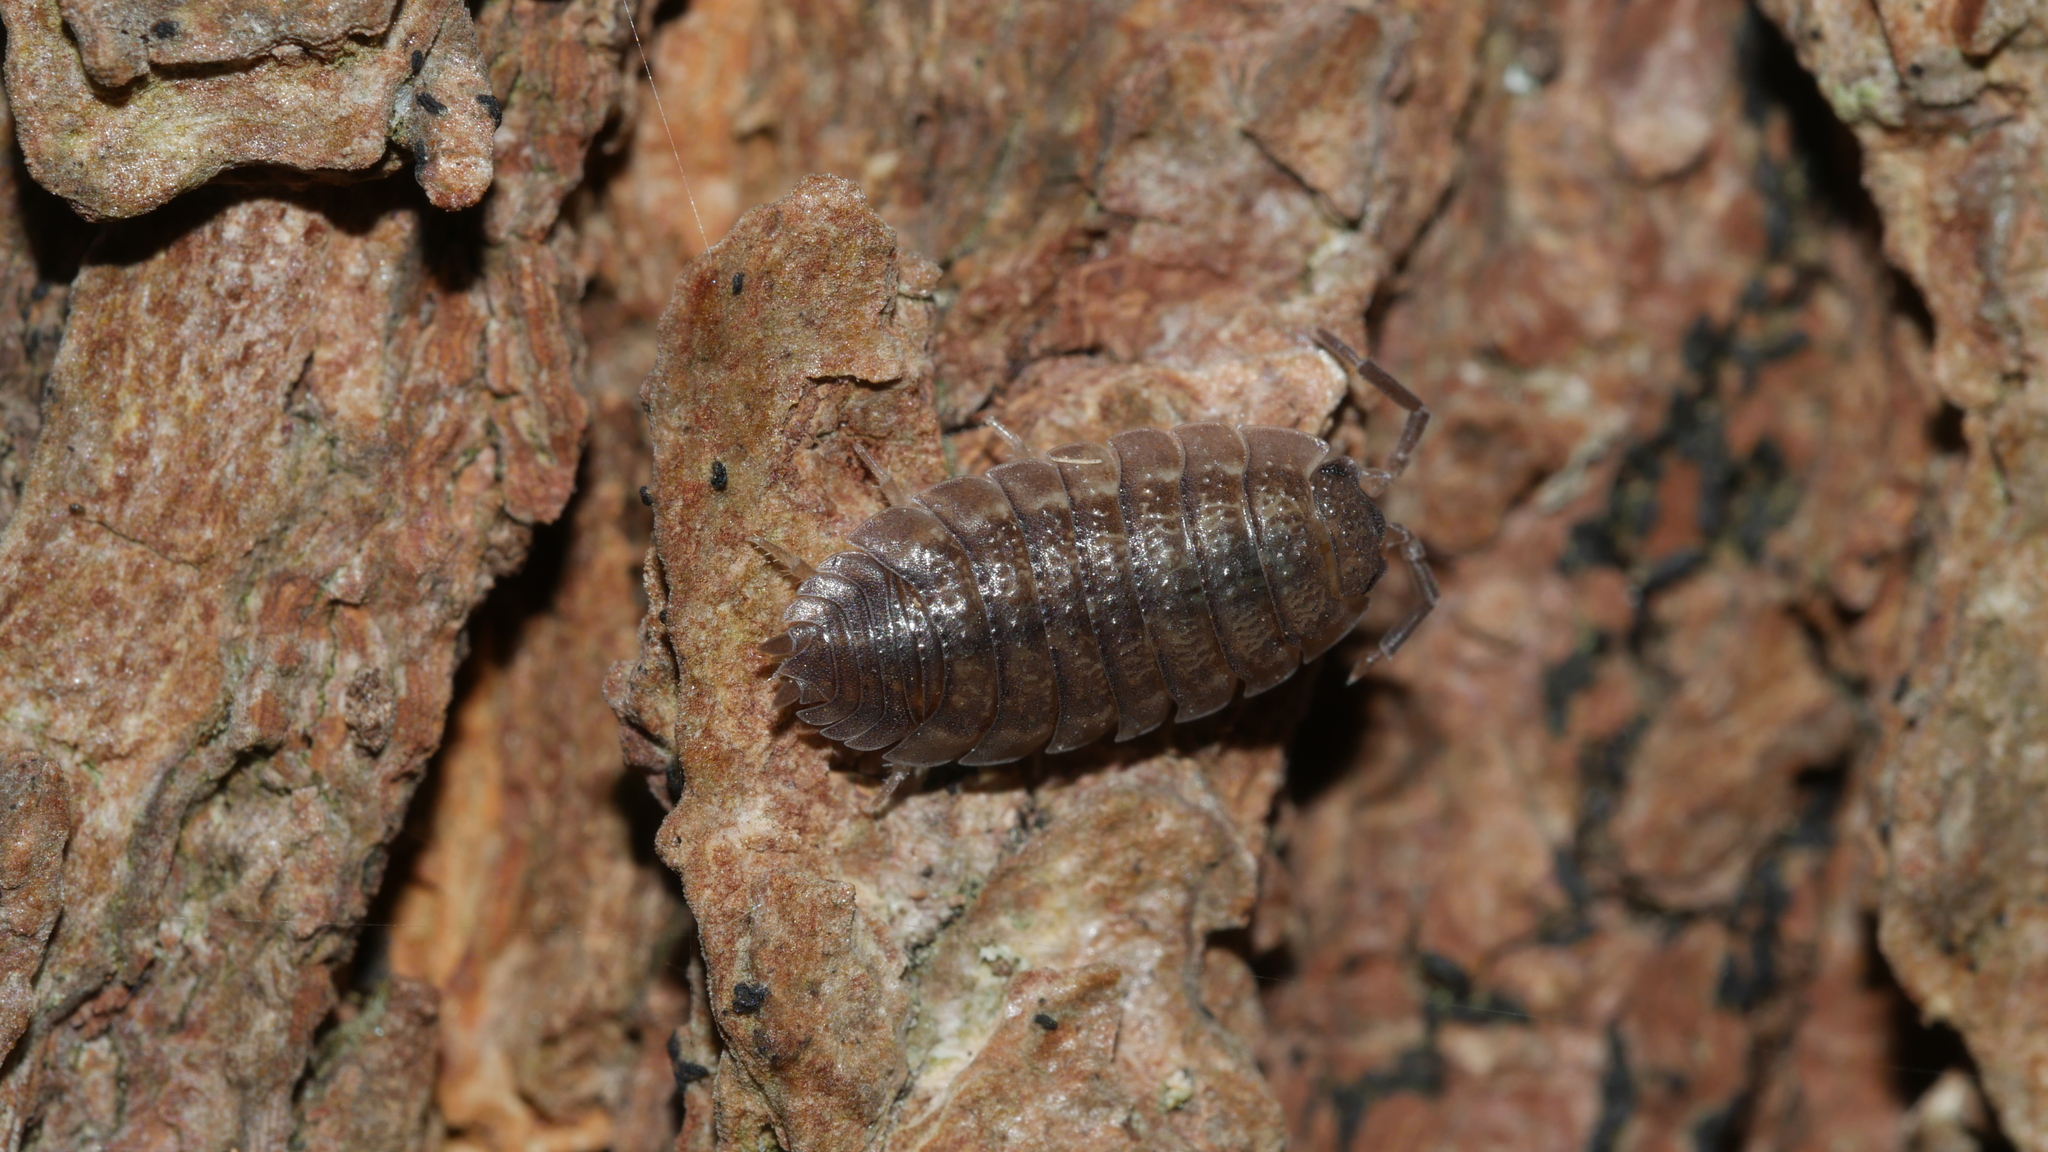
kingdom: Animalia
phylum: Arthropoda
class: Malacostraca
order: Isopoda
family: Porcellionidae
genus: Porcellio
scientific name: Porcellio scaber
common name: Common rough woodlouse
